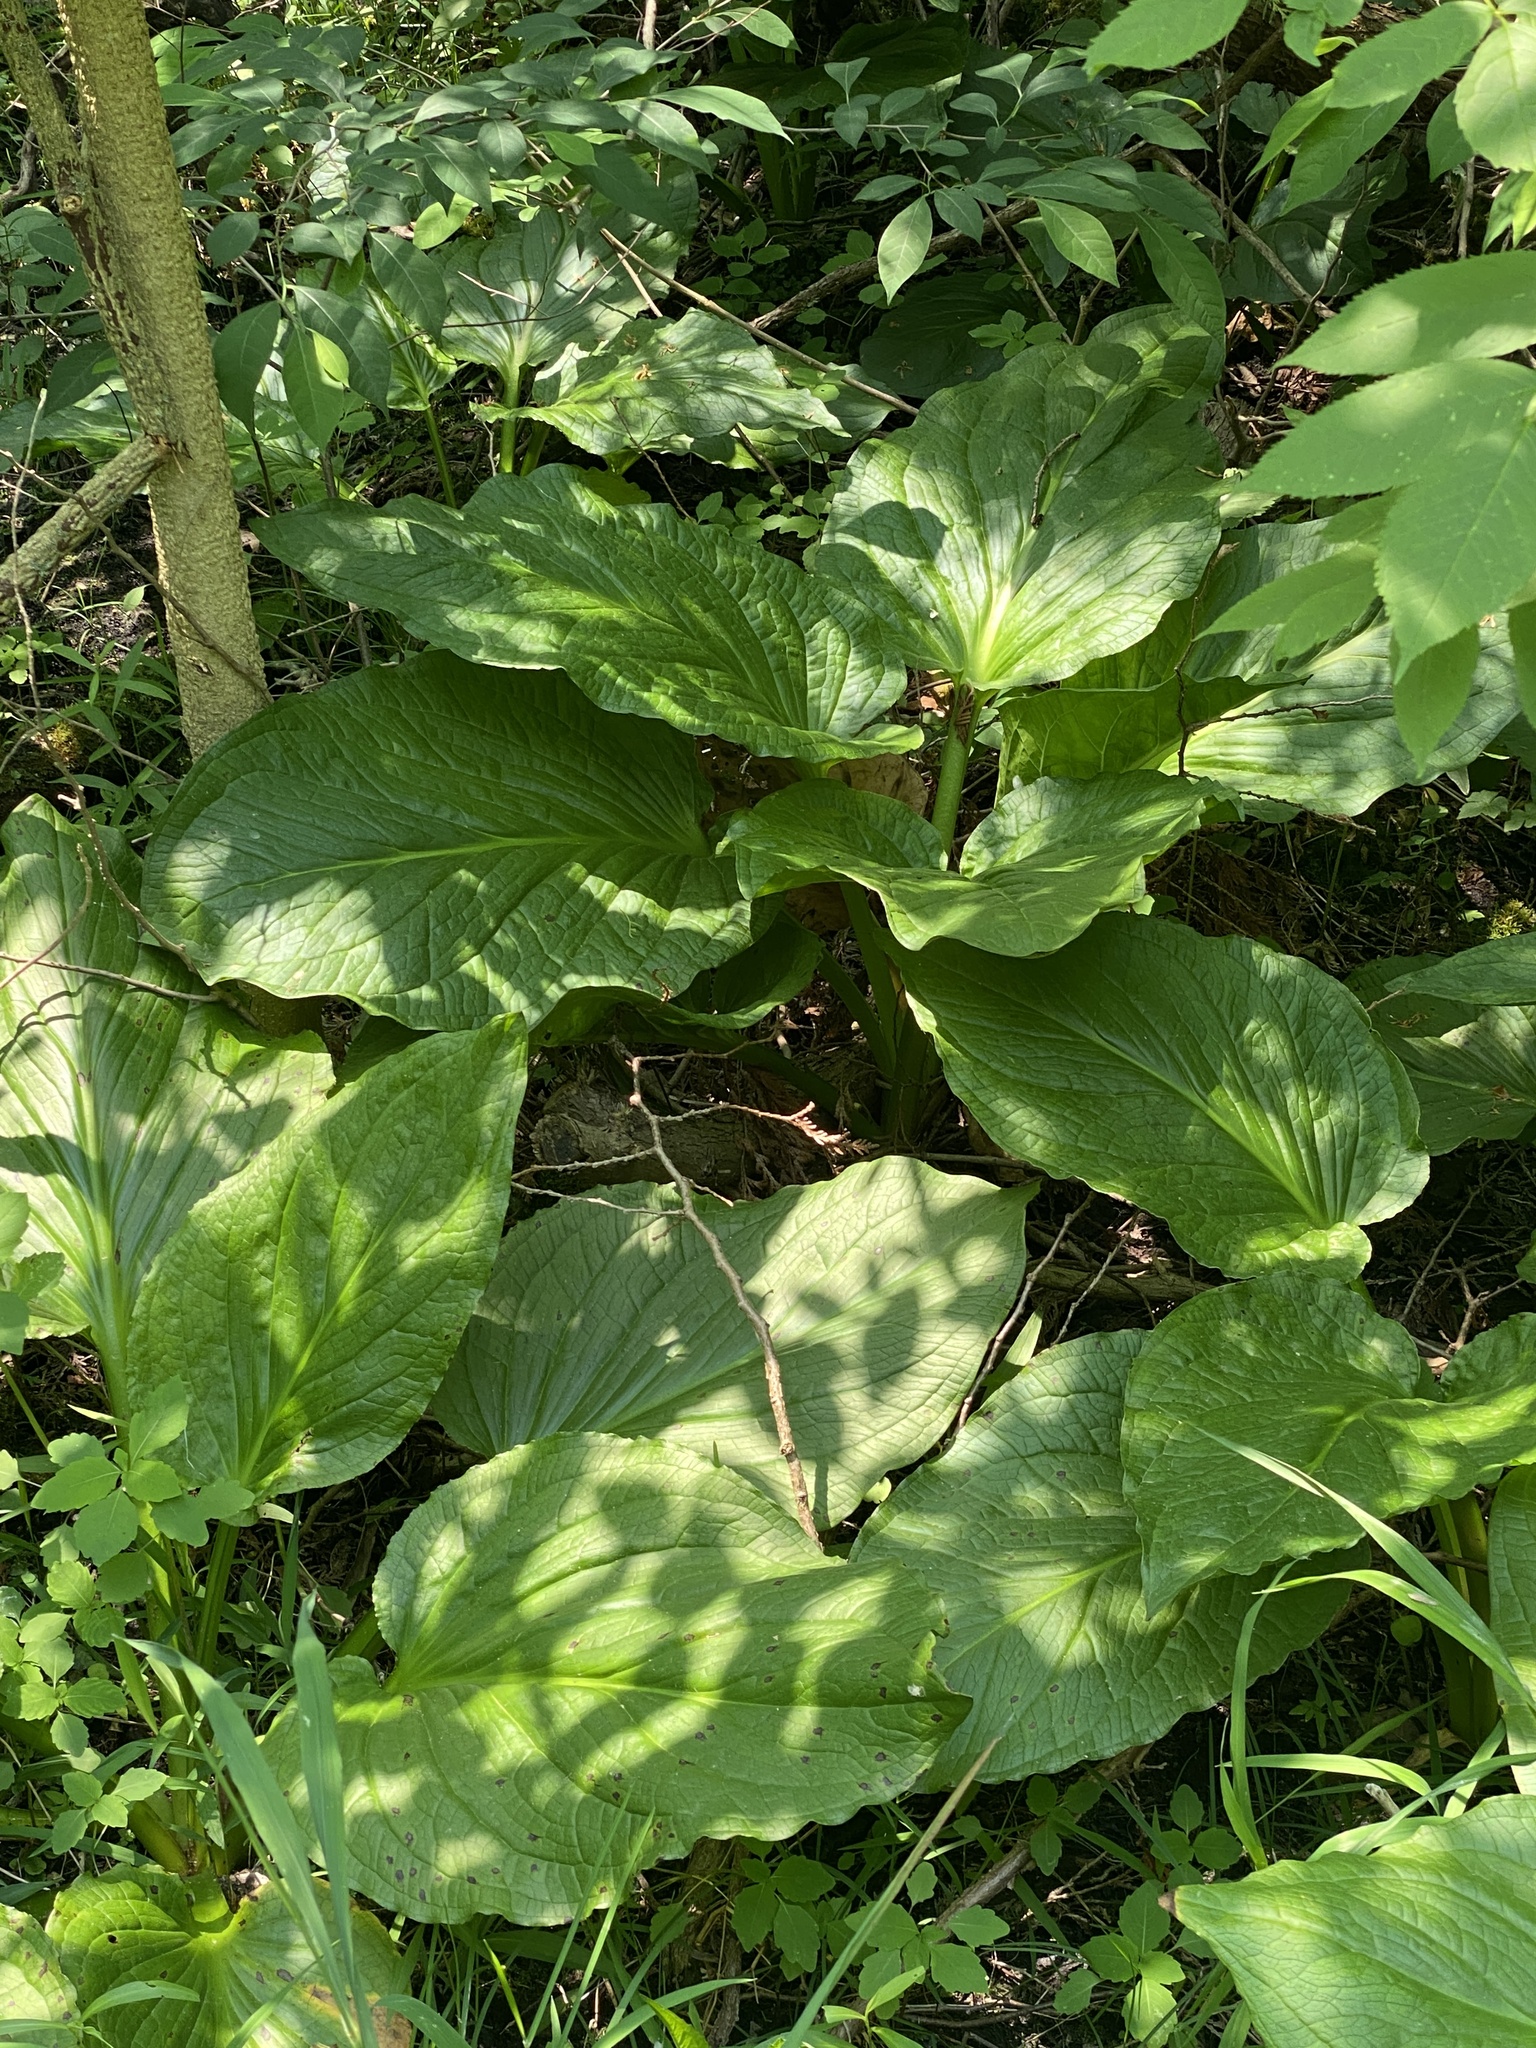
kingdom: Plantae
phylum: Tracheophyta
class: Liliopsida
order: Alismatales
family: Araceae
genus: Symplocarpus
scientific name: Symplocarpus foetidus
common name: Eastern skunk cabbage
